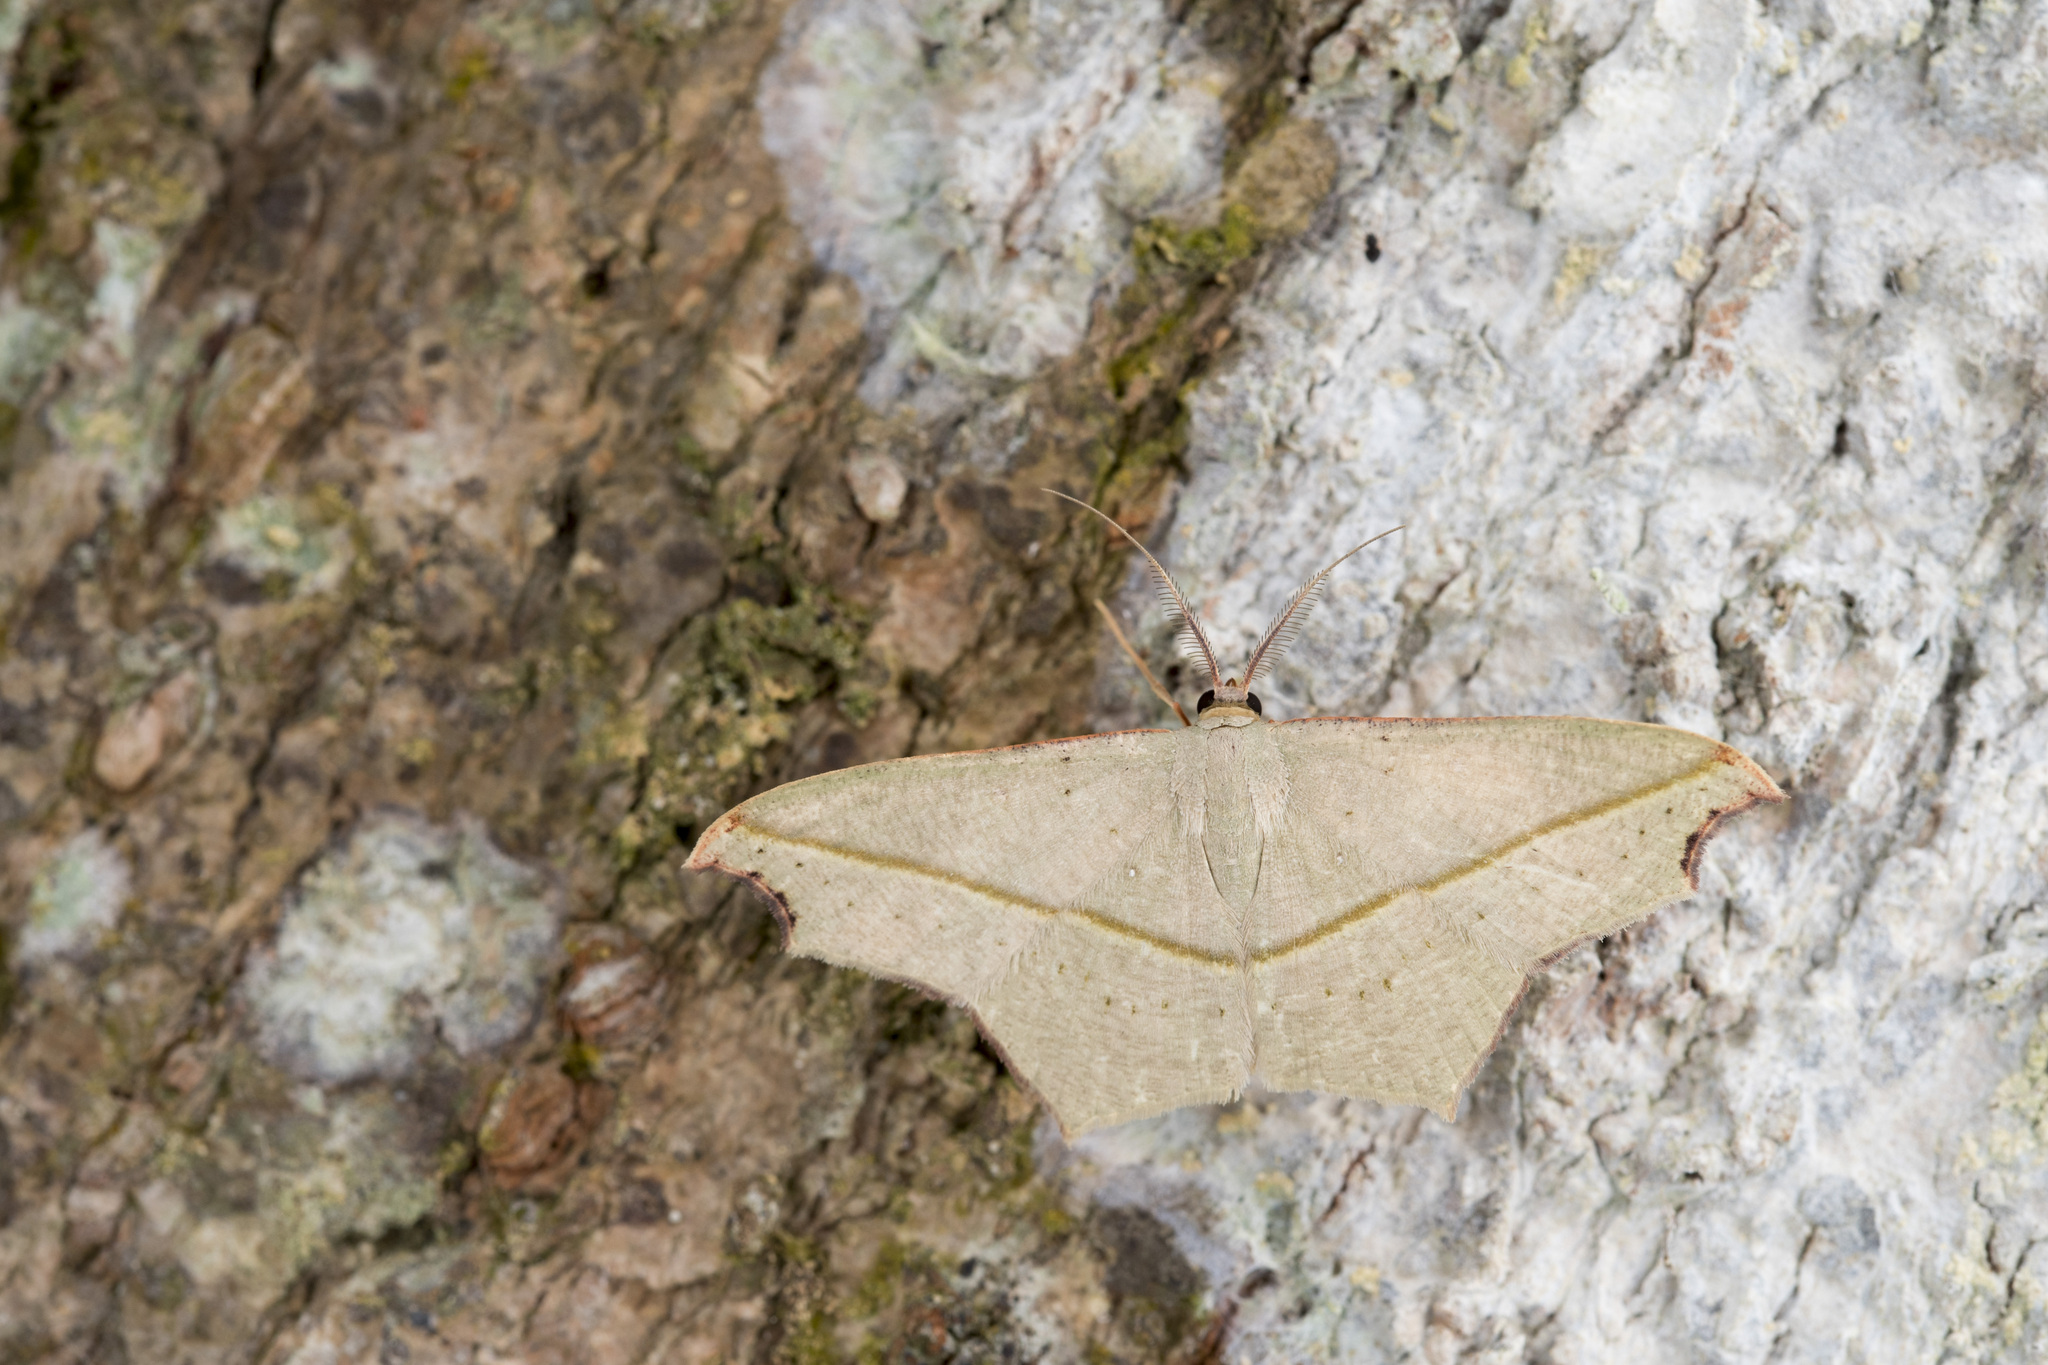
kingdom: Animalia
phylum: Arthropoda
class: Insecta
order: Lepidoptera
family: Geometridae
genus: Traminda
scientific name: Traminda aventiaria
